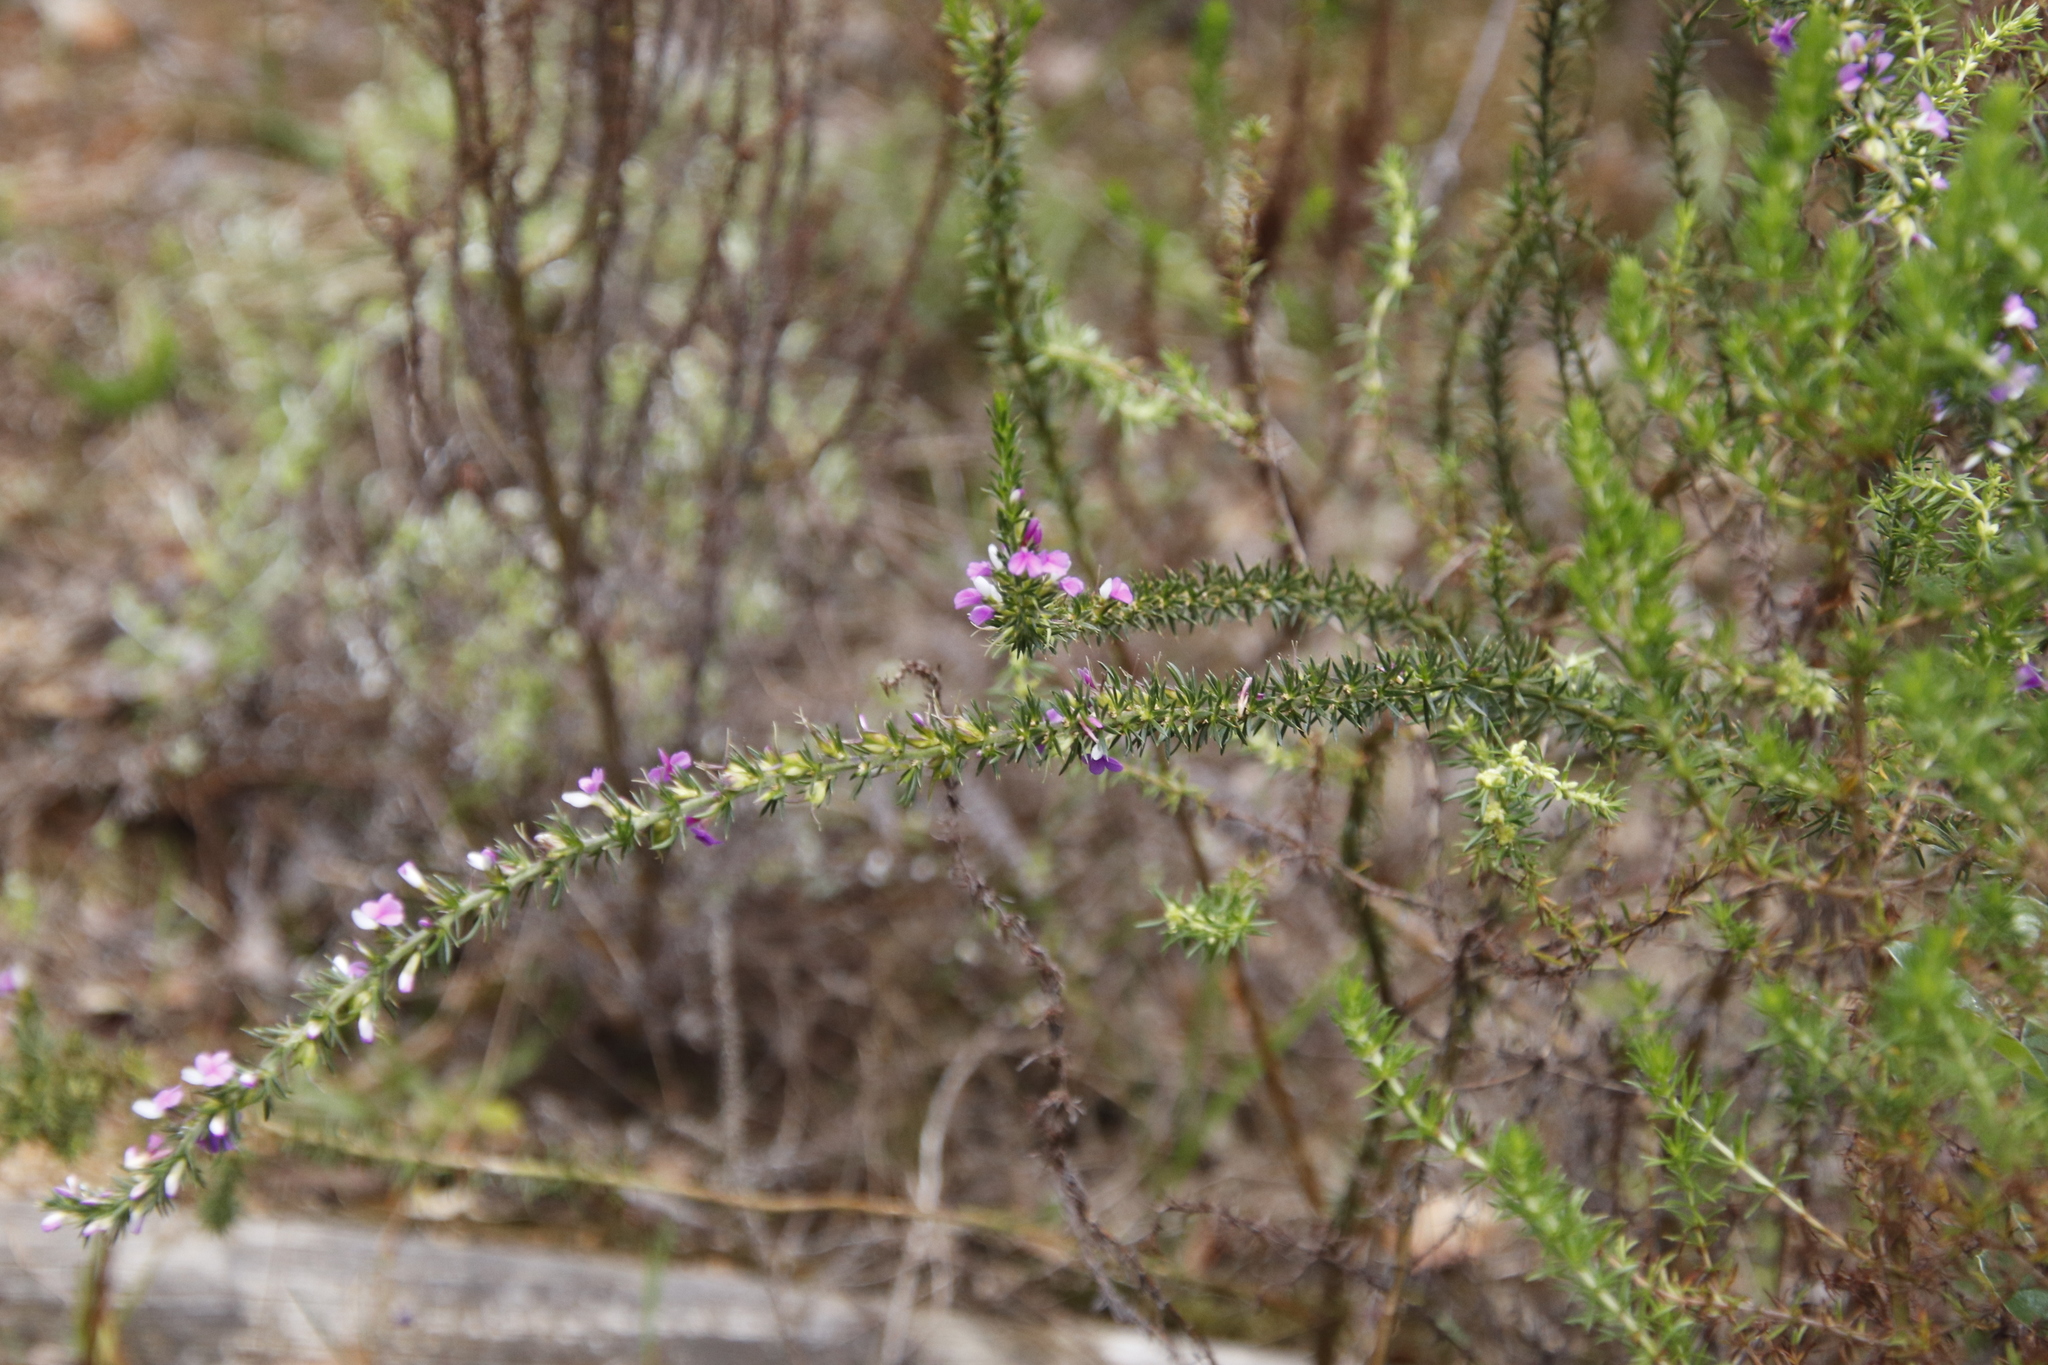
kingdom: Plantae
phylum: Tracheophyta
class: Magnoliopsida
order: Fabales
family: Polygalaceae
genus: Muraltia
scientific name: Muraltia heisteria
